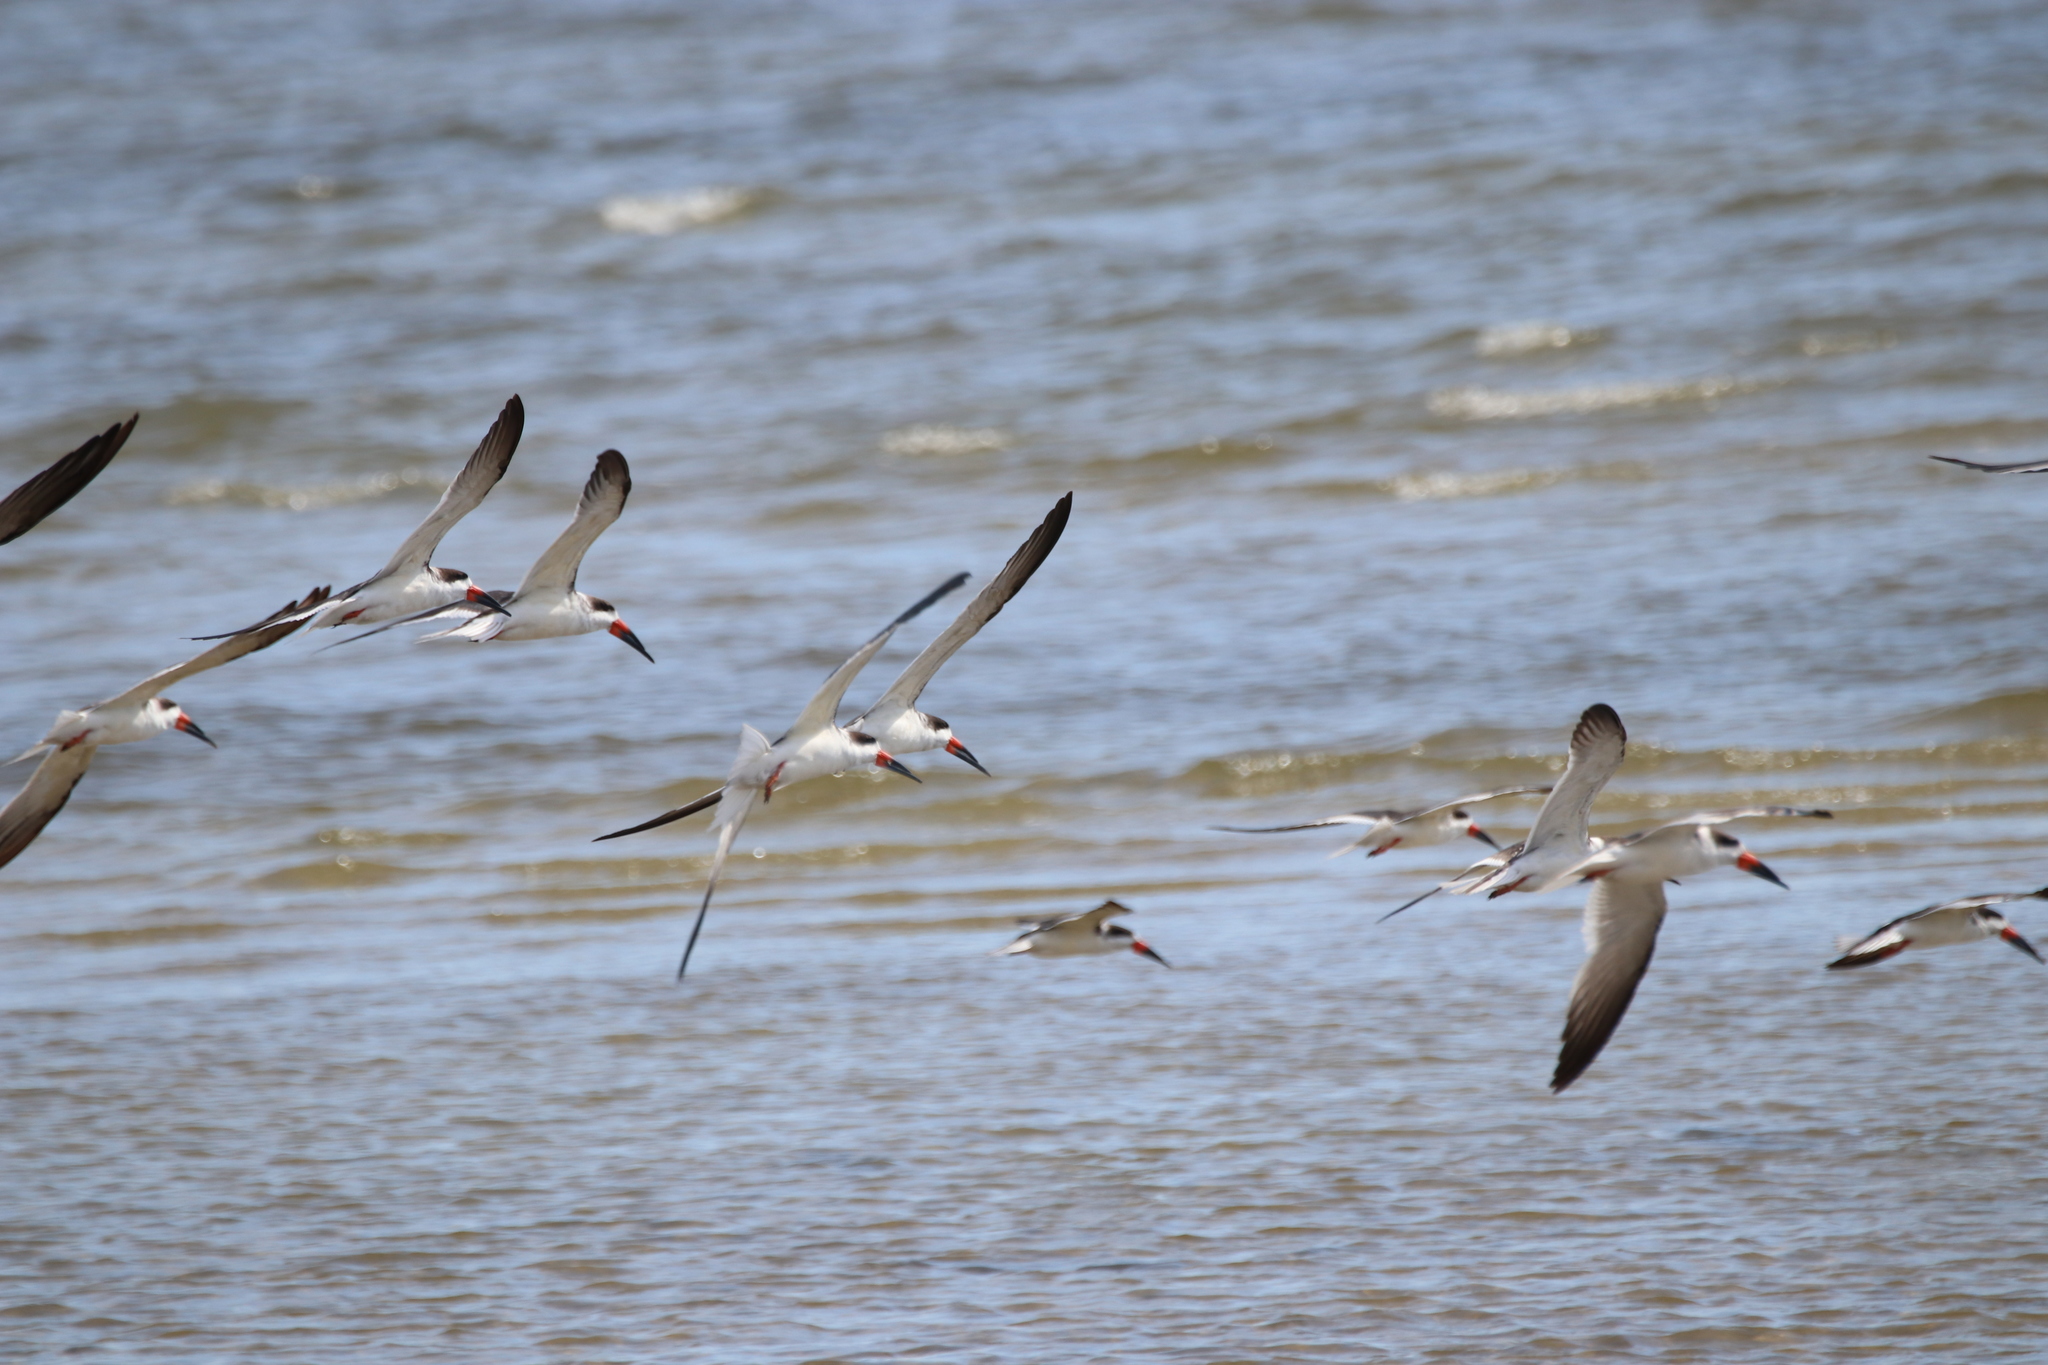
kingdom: Animalia
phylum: Chordata
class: Aves
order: Charadriiformes
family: Laridae
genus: Rynchops
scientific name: Rynchops niger
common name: Black skimmer
